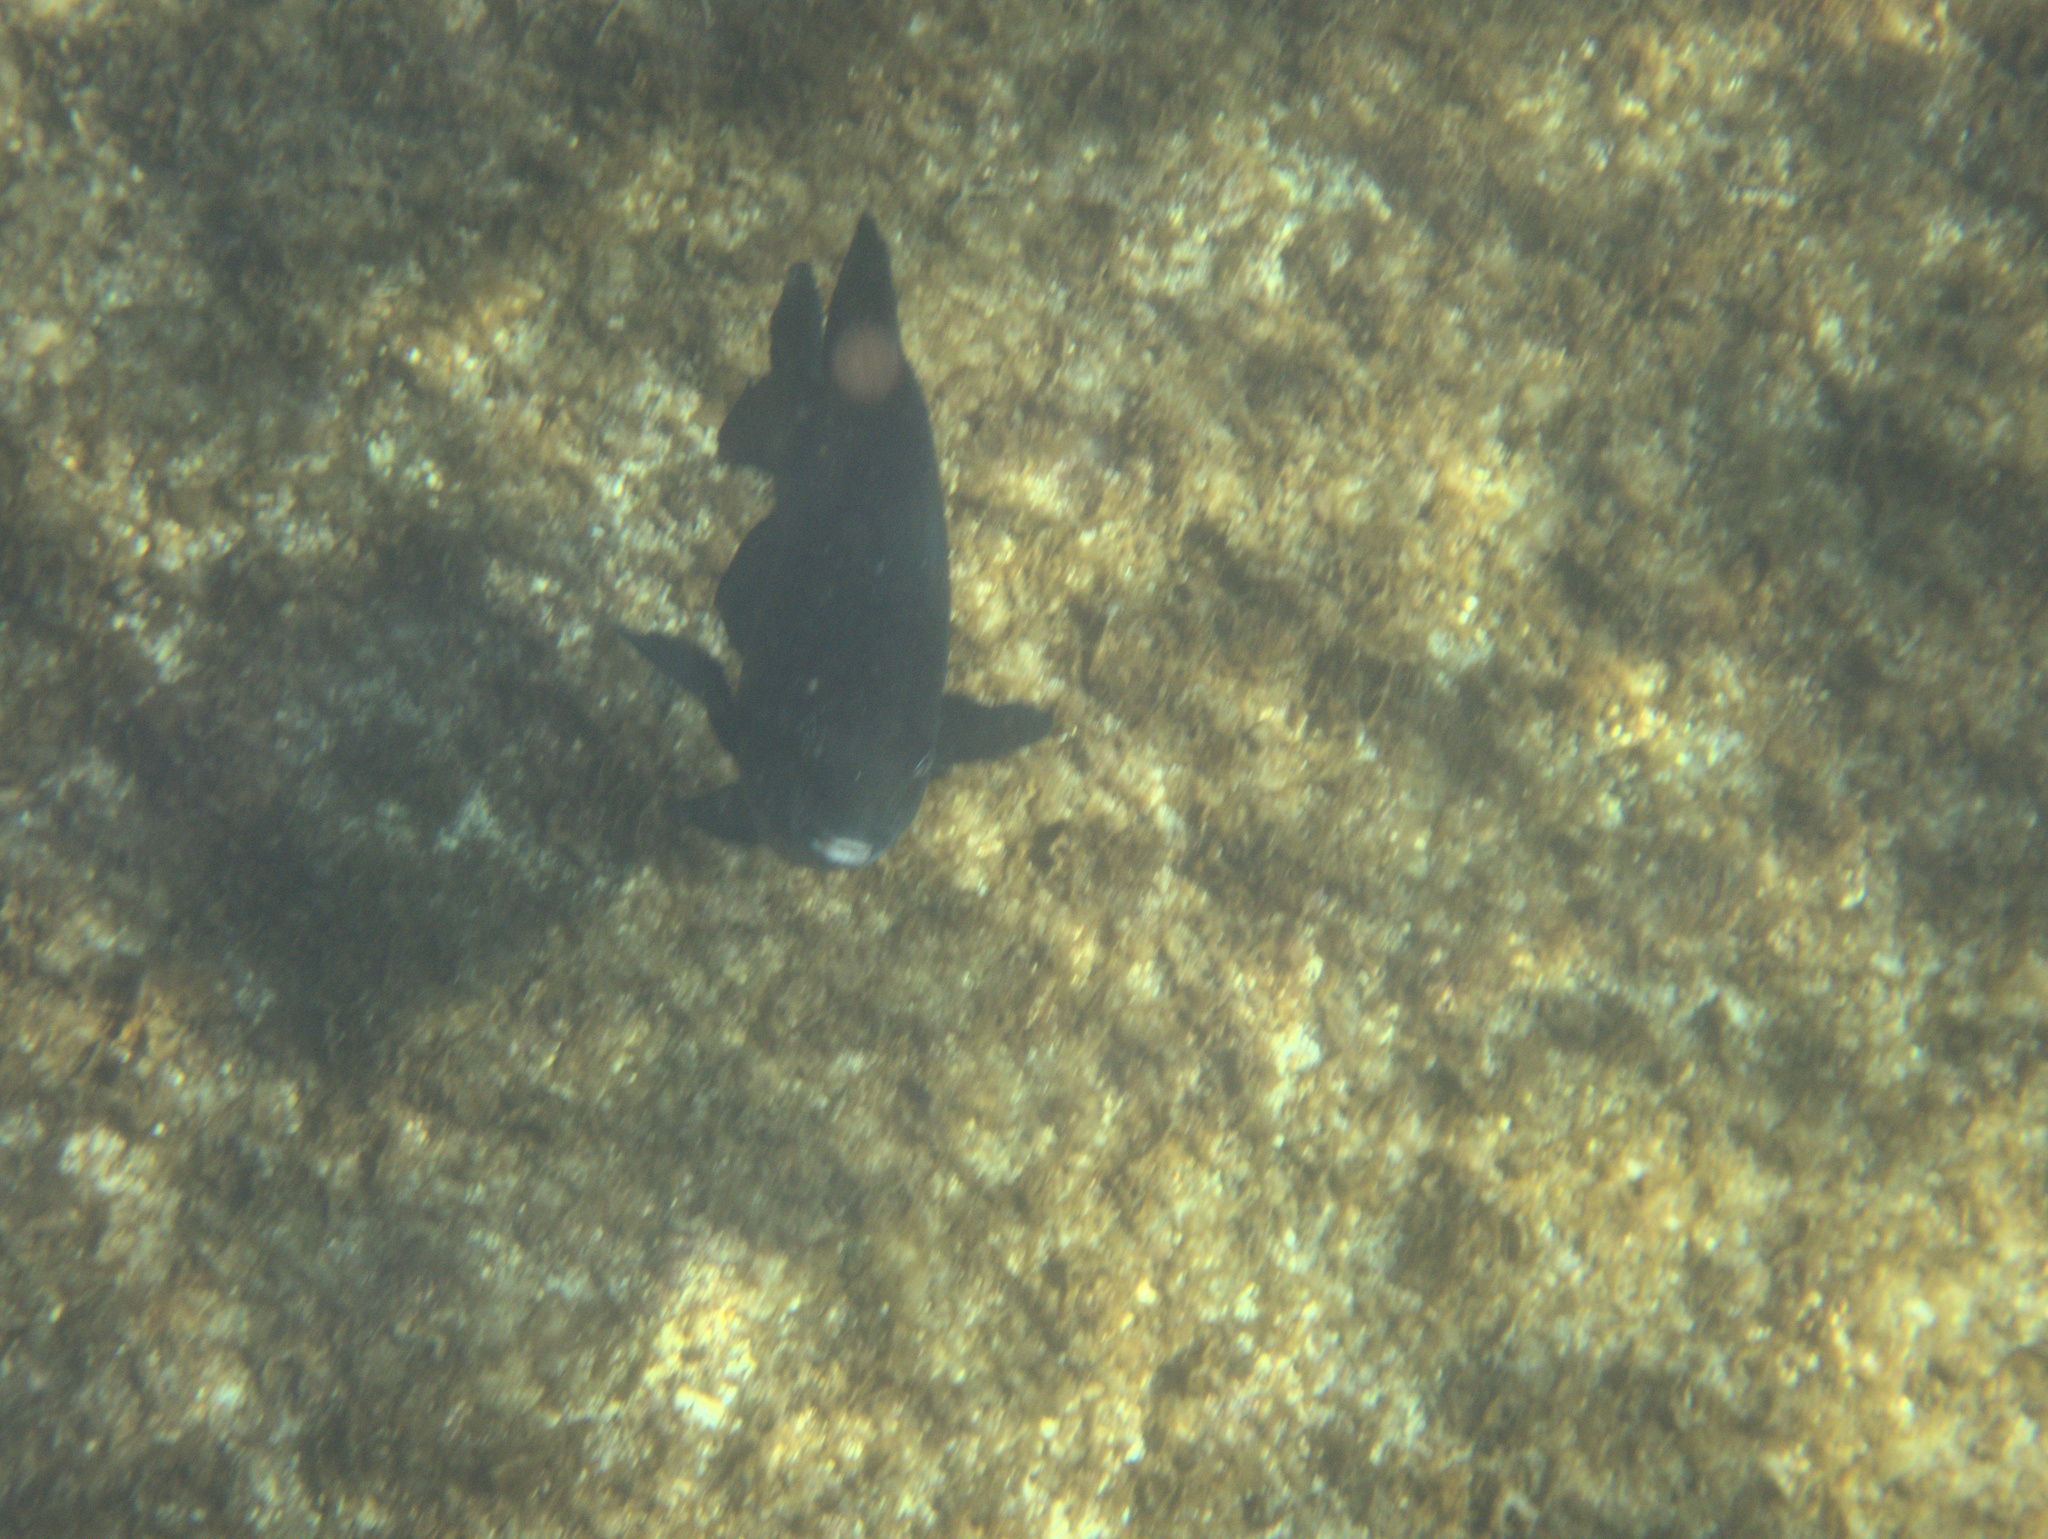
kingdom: Animalia
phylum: Chordata
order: Perciformes
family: Pomacentridae
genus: Parma
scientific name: Parma alboscapularis
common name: Black angelfish
